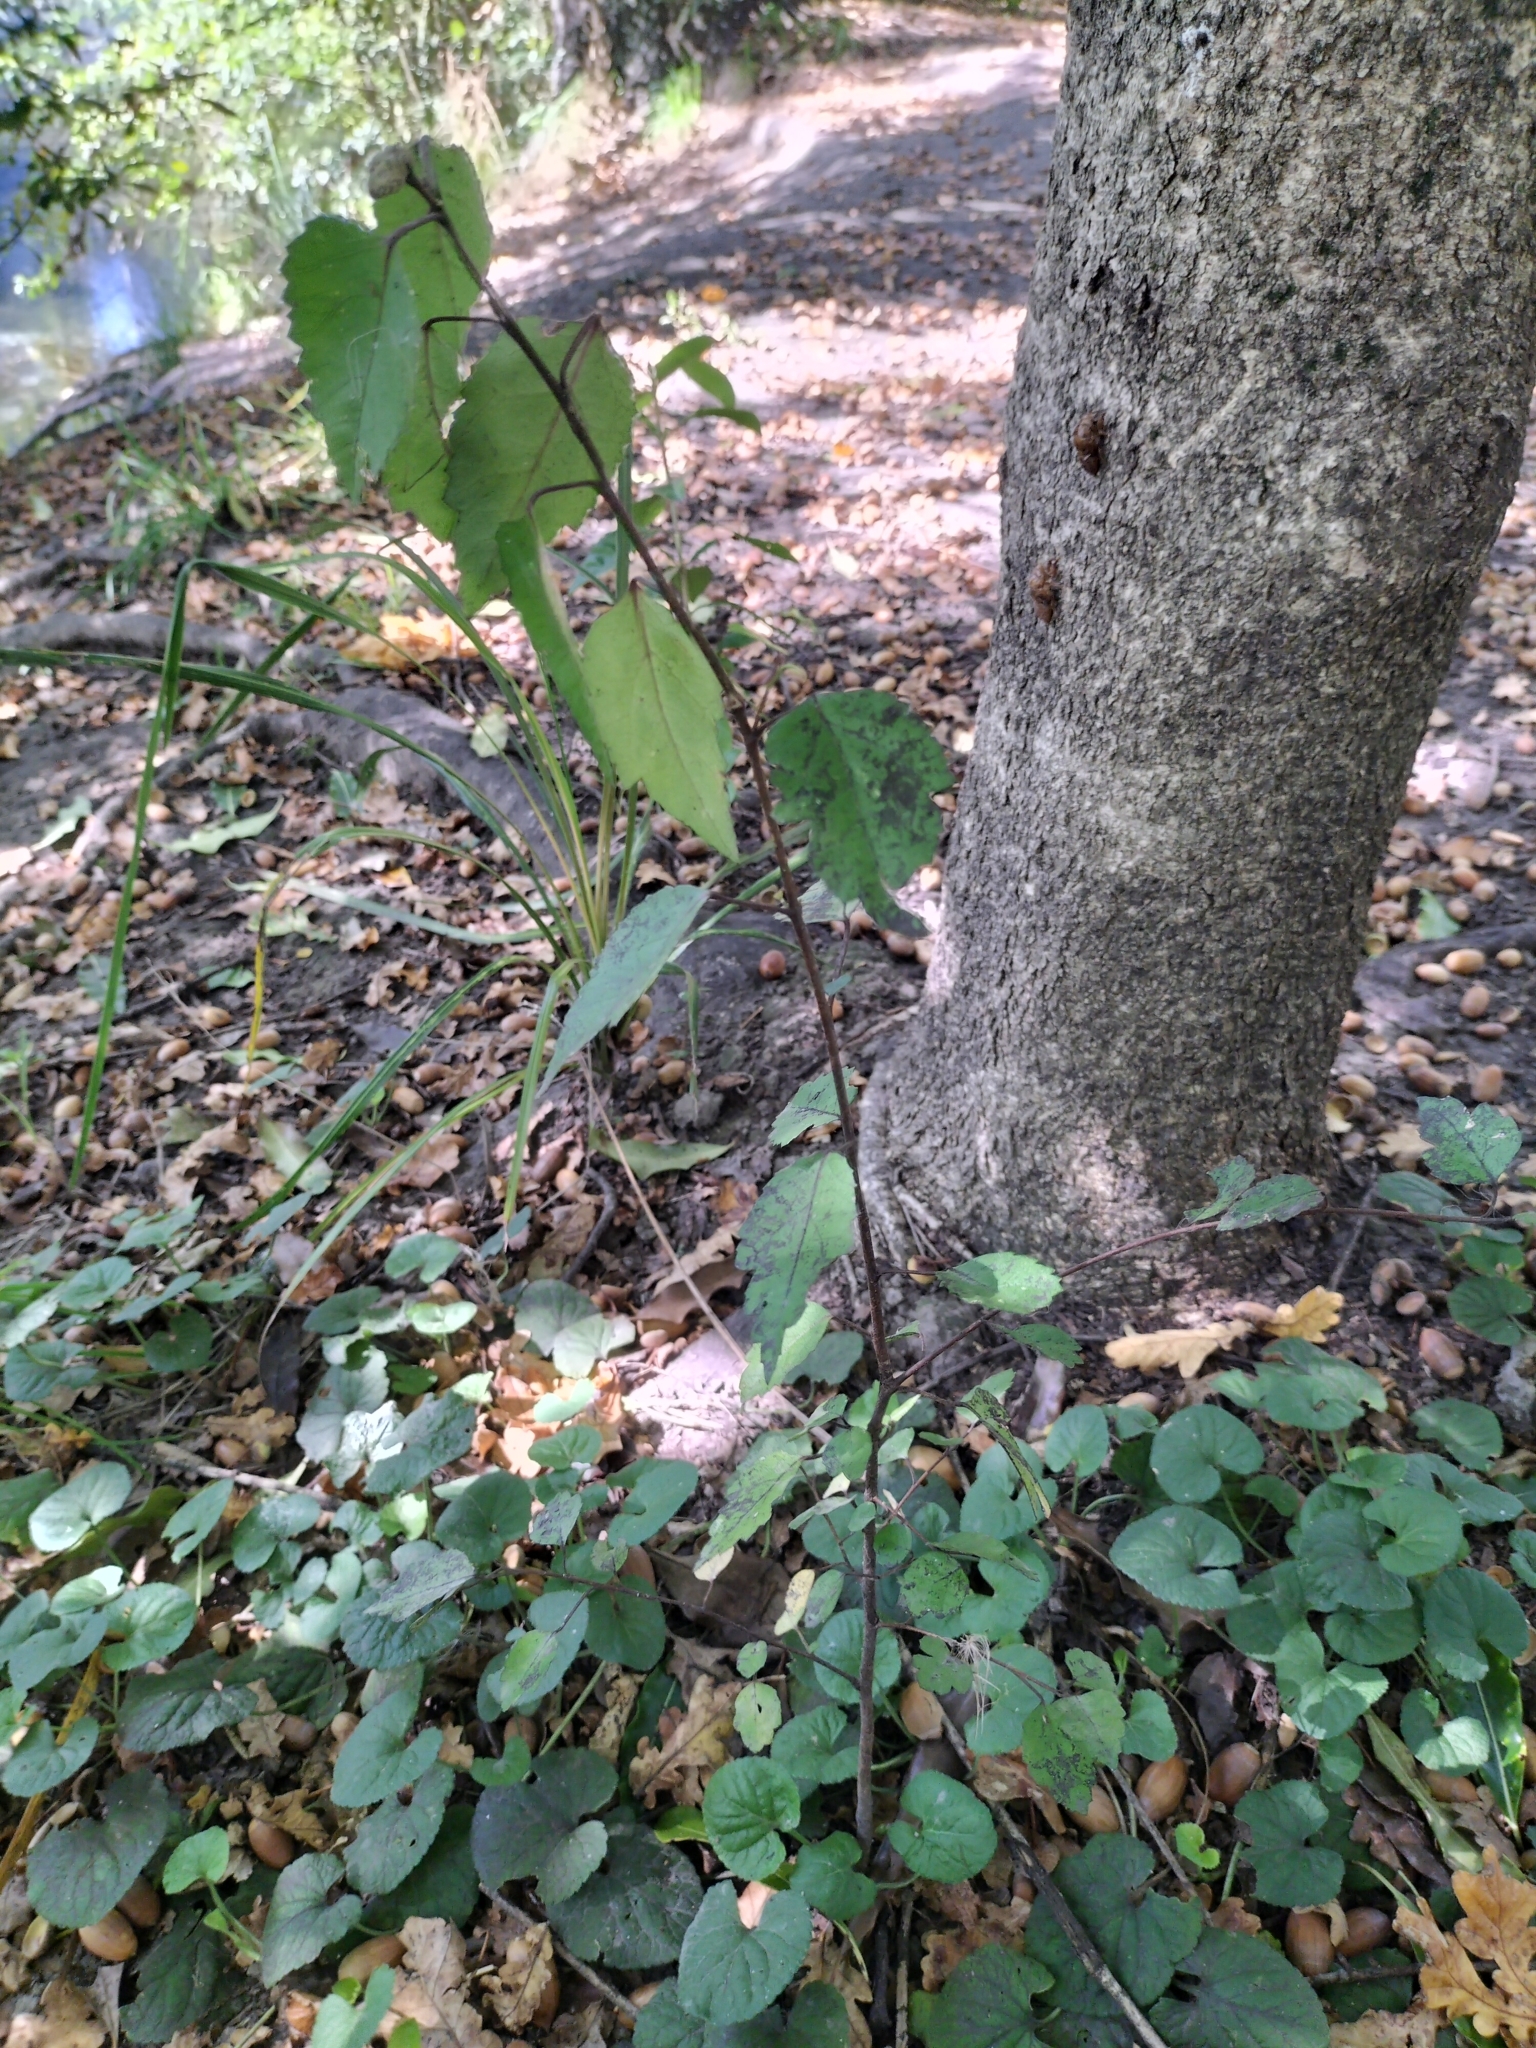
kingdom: Plantae
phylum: Tracheophyta
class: Magnoliopsida
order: Malvales
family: Malvaceae
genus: Hoheria
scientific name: Hoheria populnea
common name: Lacebark
